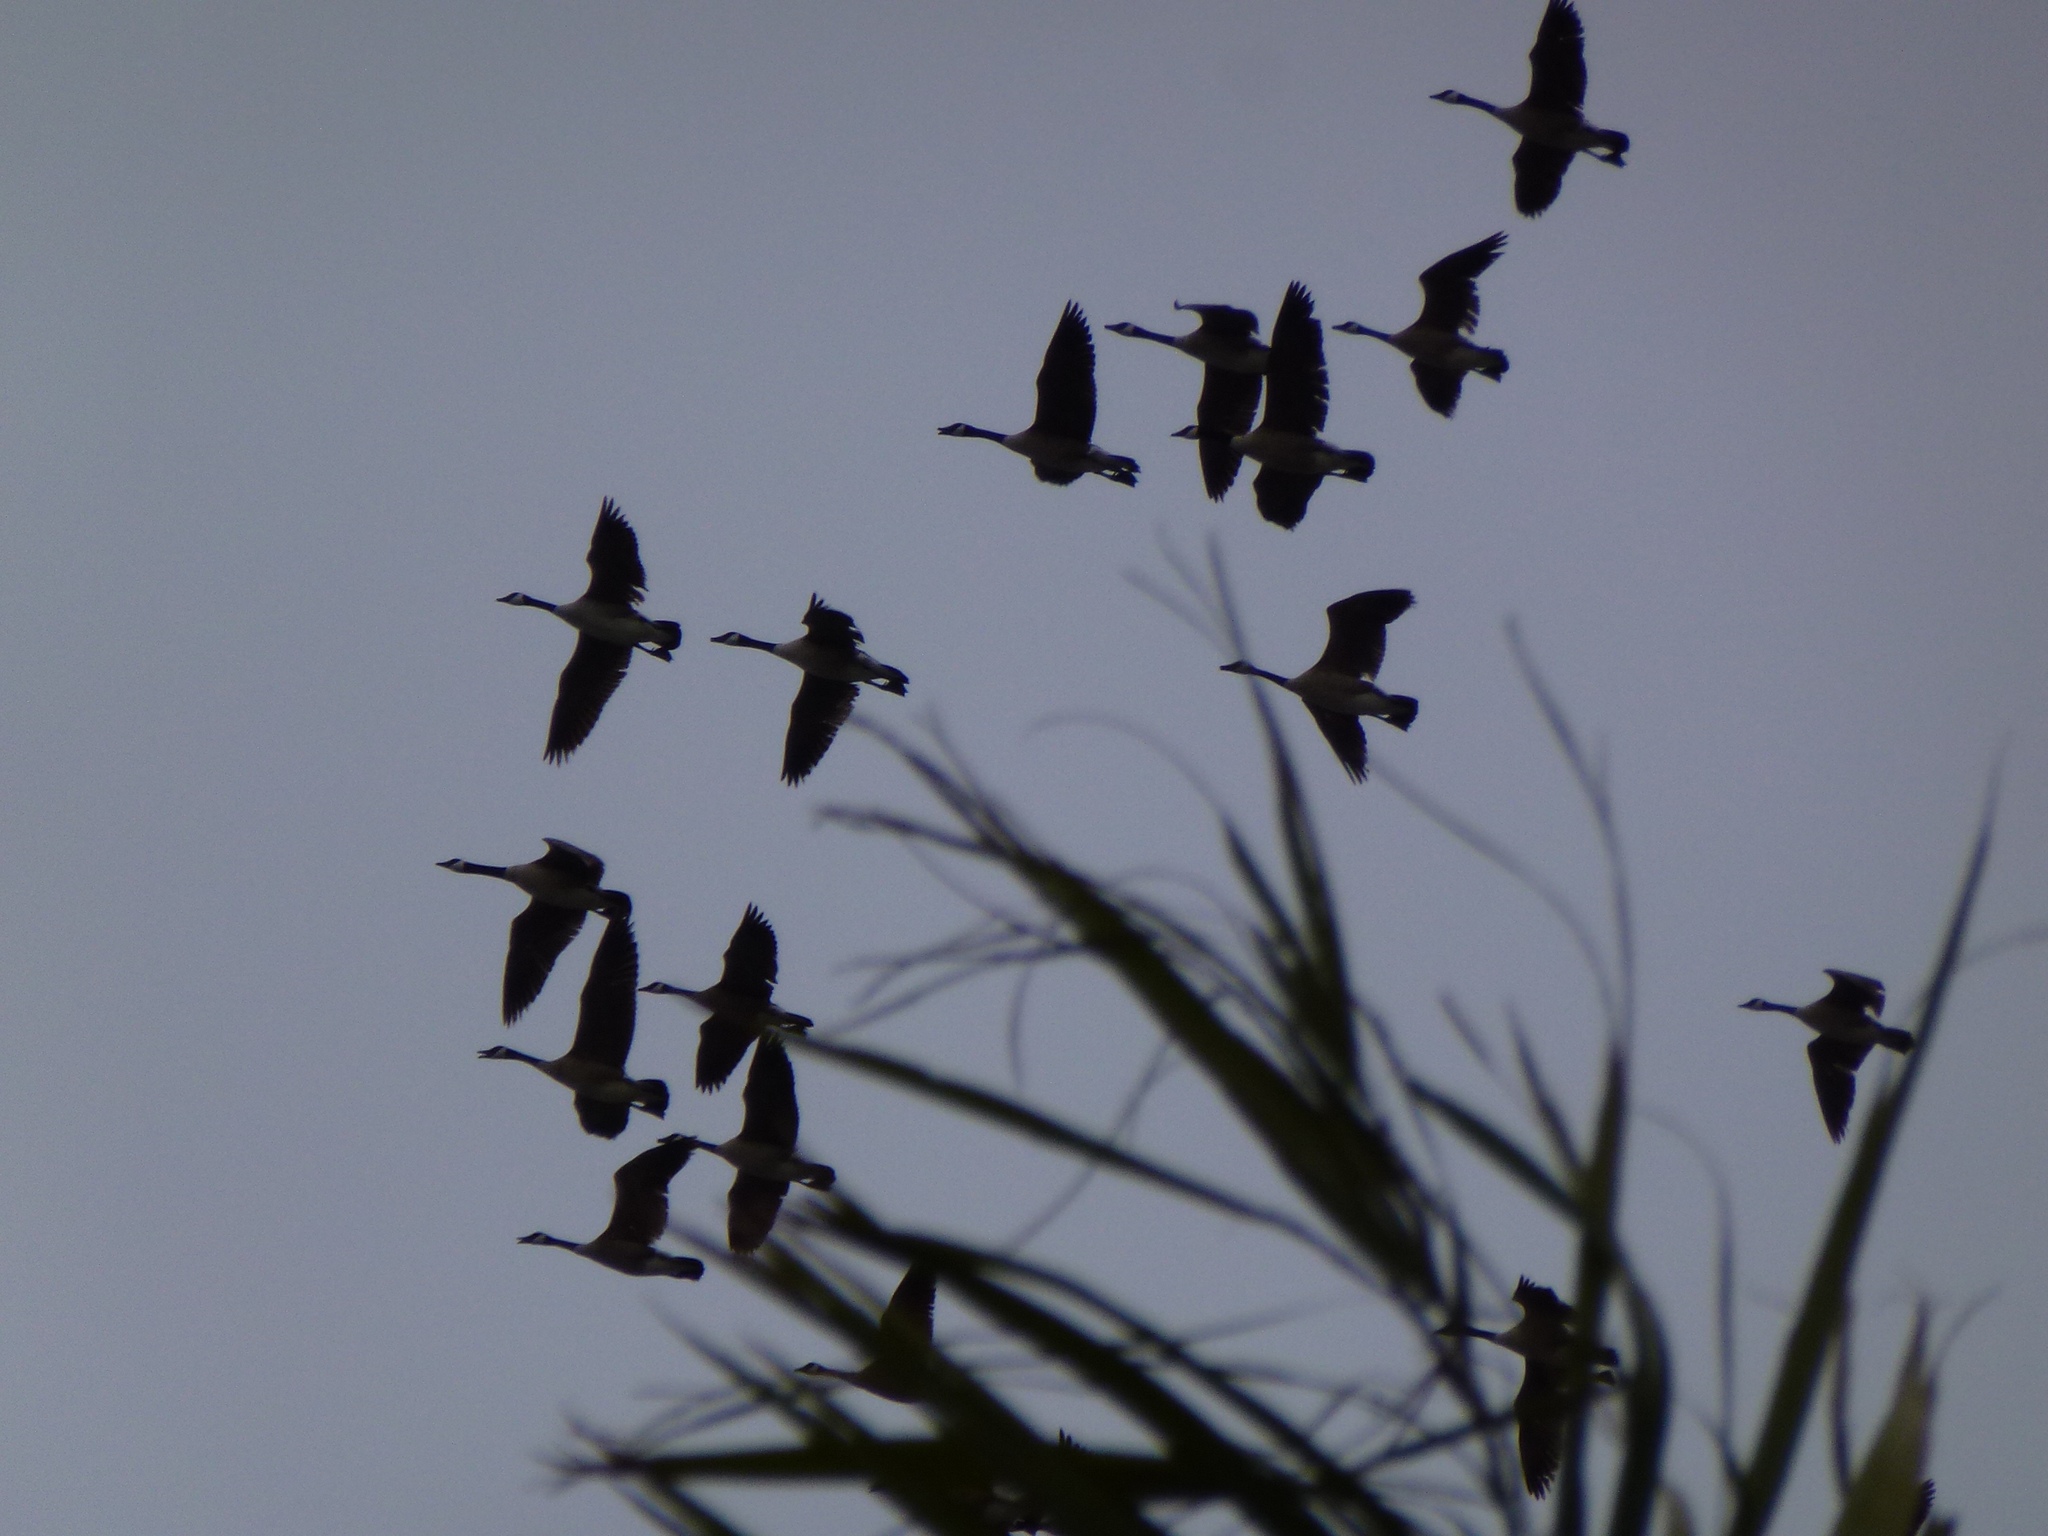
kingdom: Animalia
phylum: Chordata
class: Aves
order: Anseriformes
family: Anatidae
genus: Branta
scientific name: Branta canadensis
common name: Canada goose
